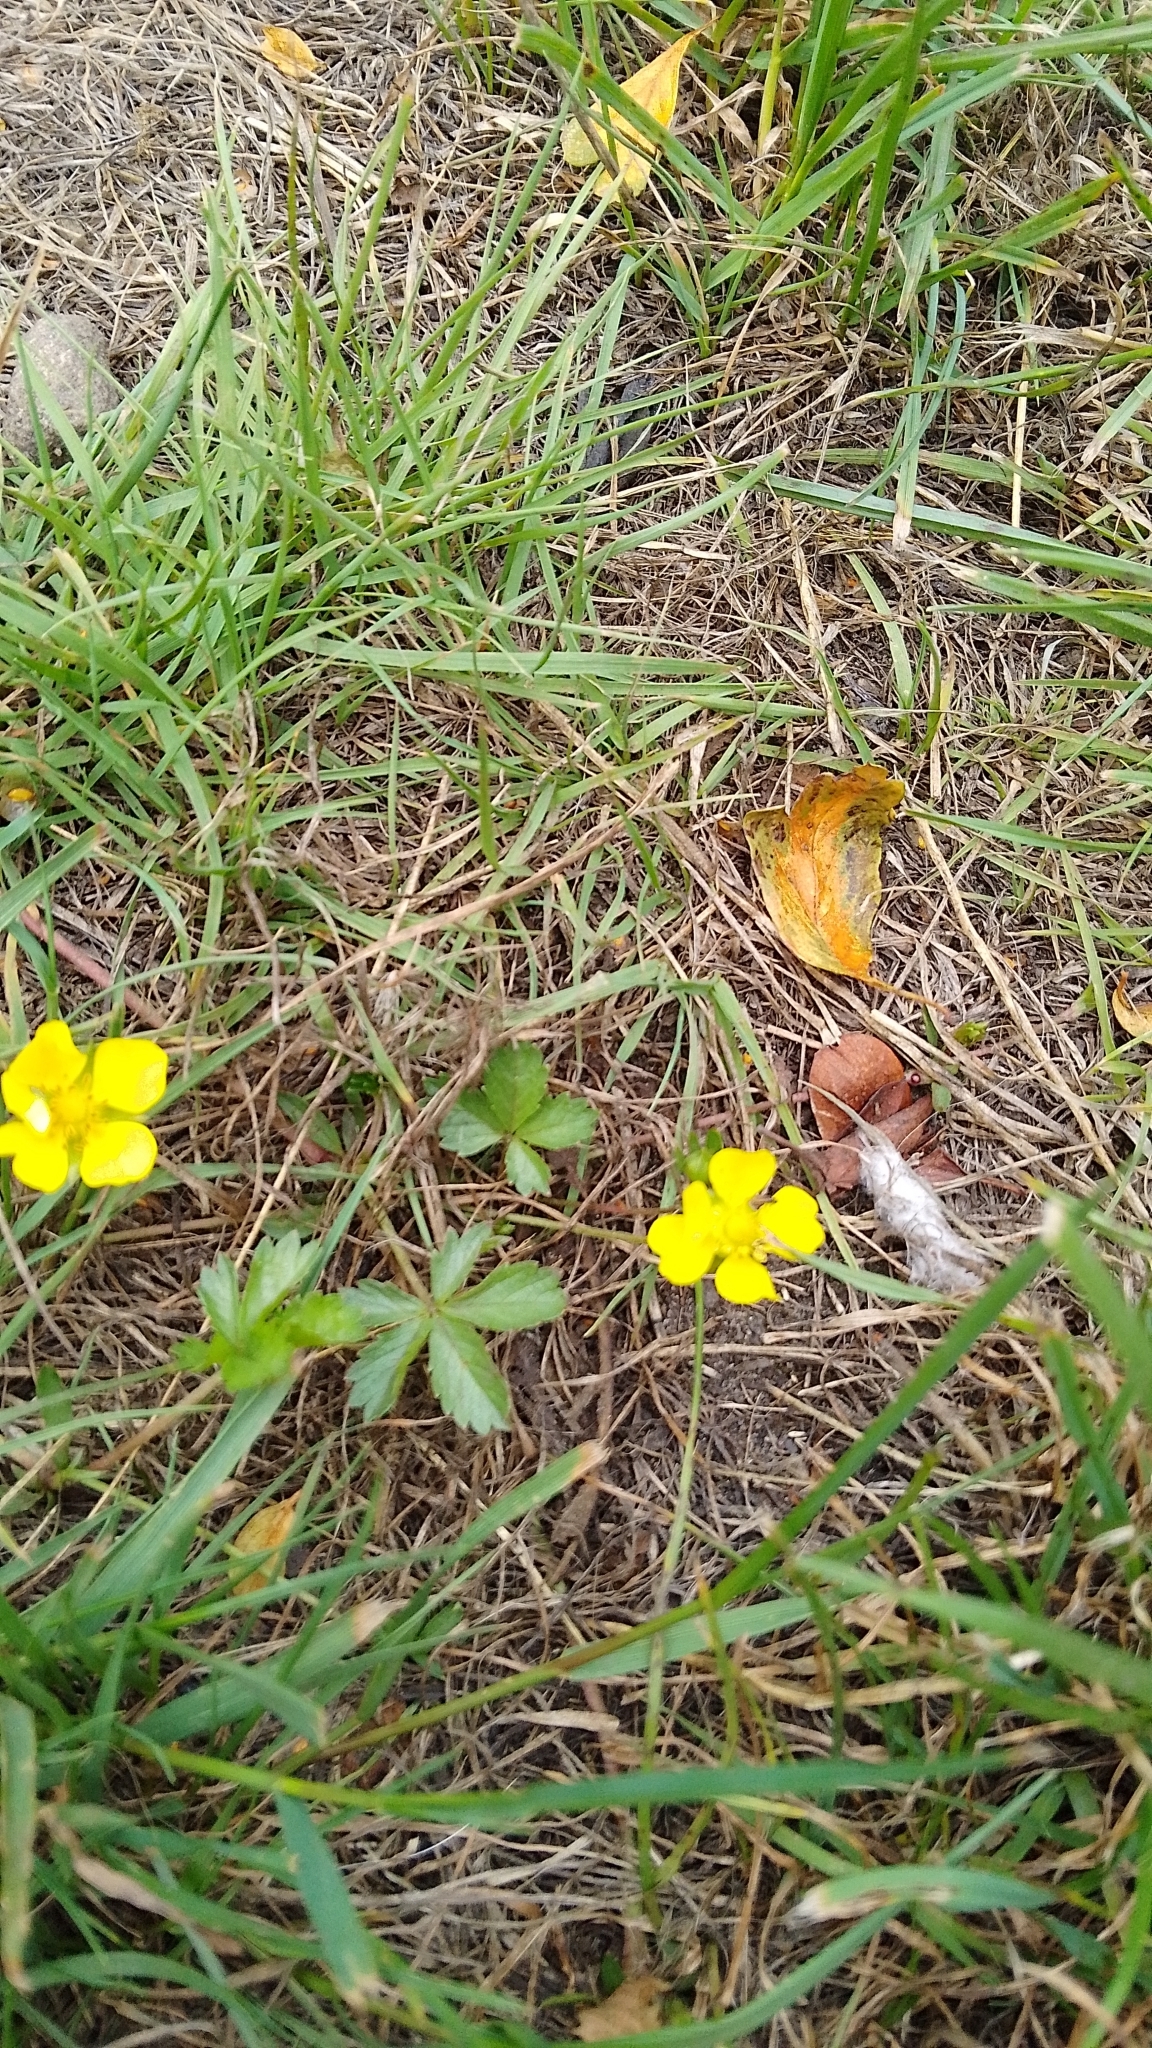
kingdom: Plantae
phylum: Tracheophyta
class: Magnoliopsida
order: Rosales
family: Rosaceae
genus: Potentilla
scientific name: Potentilla reptans
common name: Creeping cinquefoil
